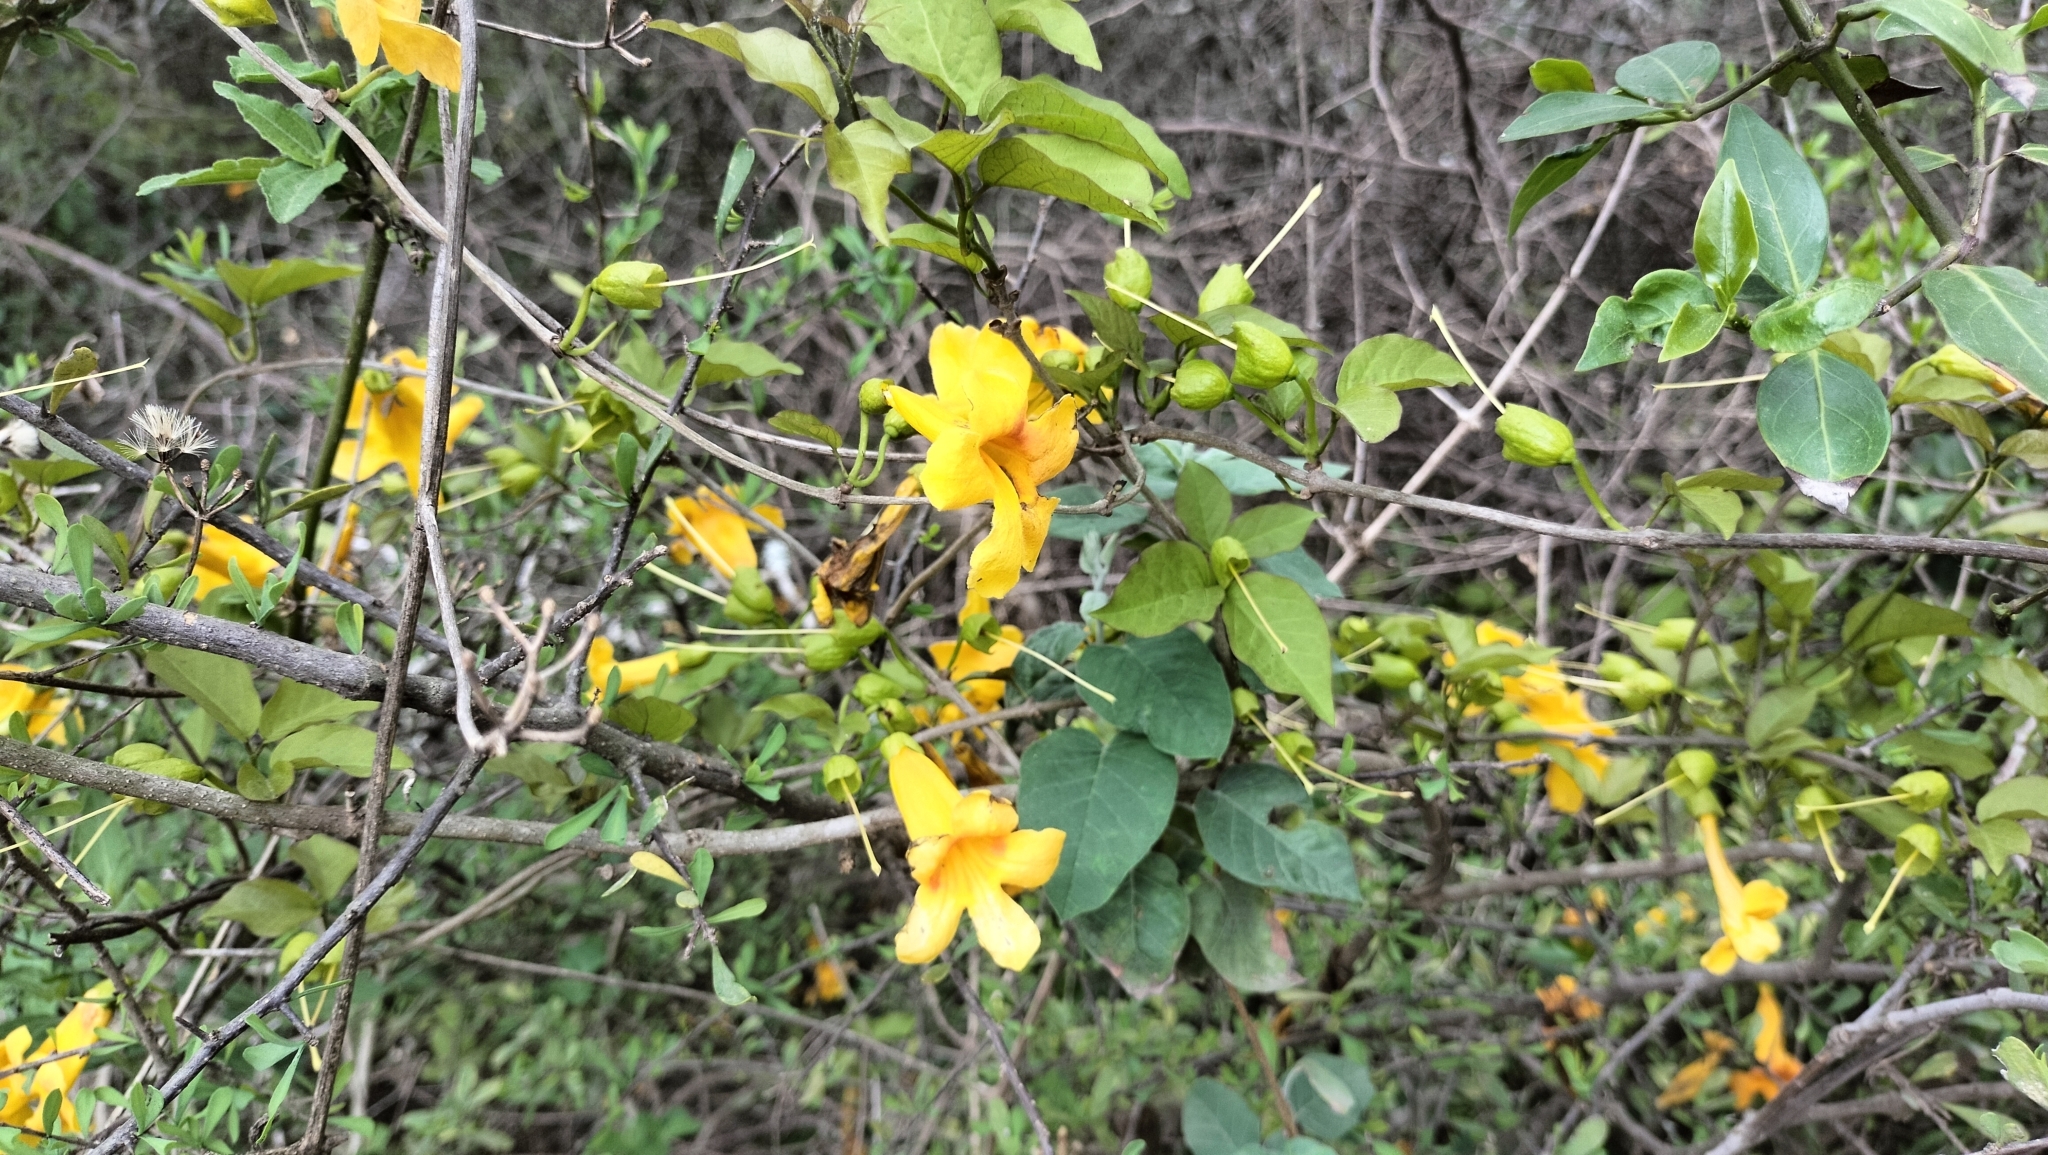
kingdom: Plantae
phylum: Tracheophyta
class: Magnoliopsida
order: Lamiales
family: Bignoniaceae
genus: Dolichandra
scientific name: Dolichandra unguis-cati
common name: Catclaw vine
